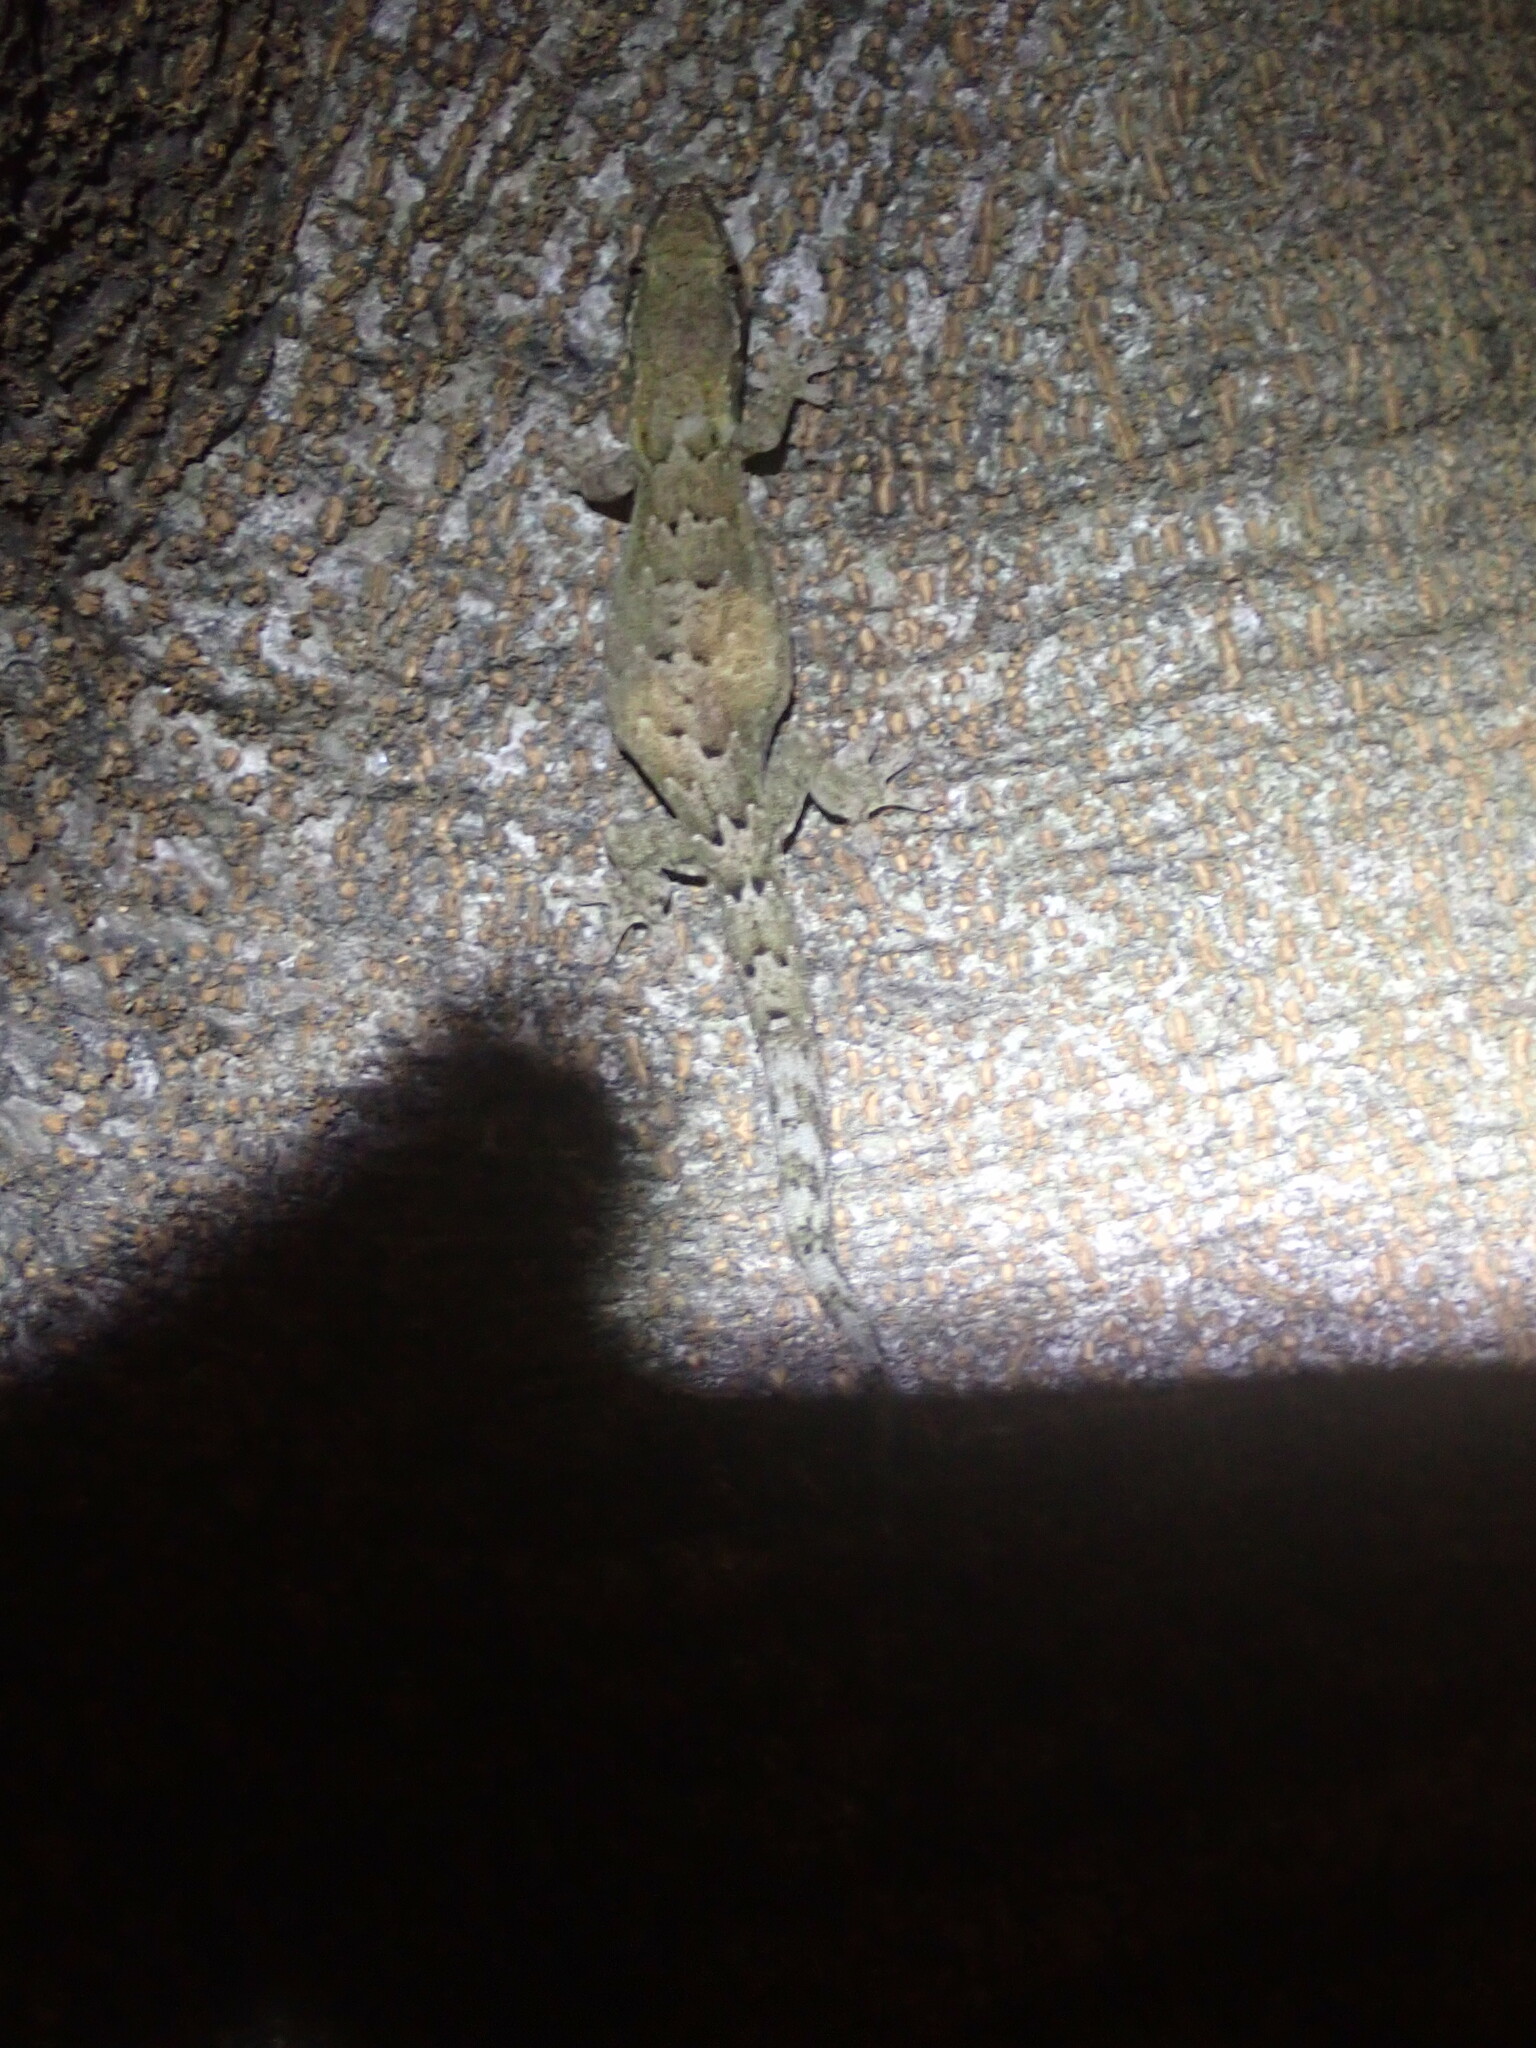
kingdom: Animalia
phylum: Chordata
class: Squamata
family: Gekkonidae
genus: Lepidodactylus
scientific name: Lepidodactylus lugubris
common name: Mourning gecko
